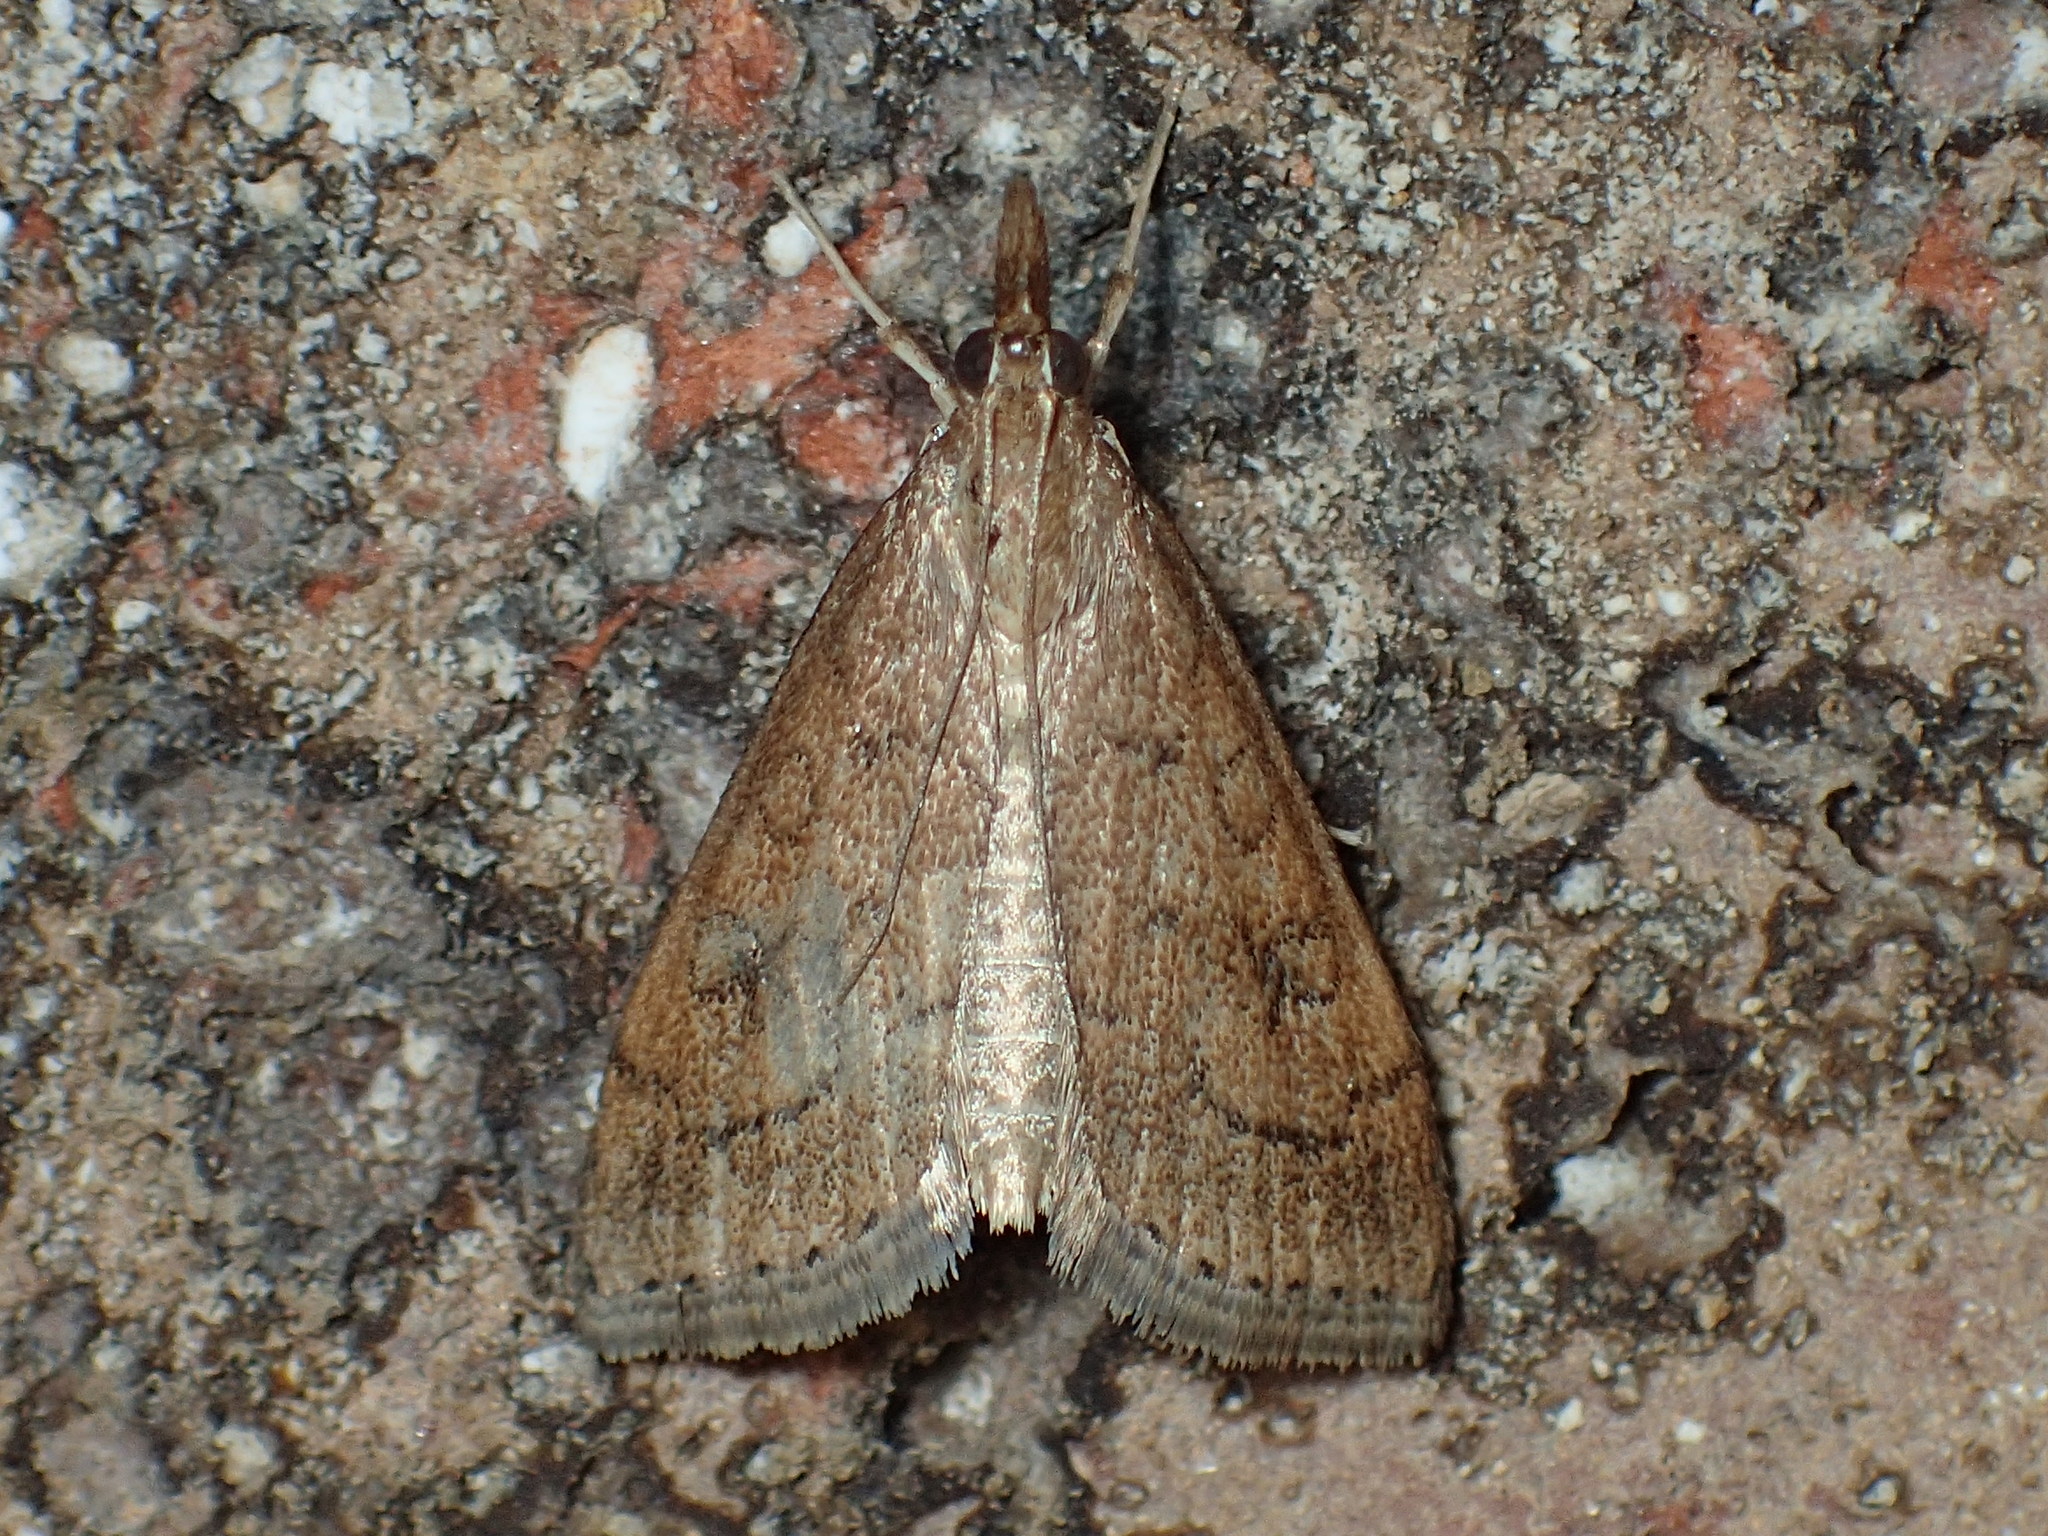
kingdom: Animalia
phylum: Arthropoda
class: Insecta
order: Lepidoptera
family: Crambidae
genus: Udea
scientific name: Udea rubigalis
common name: Celery leaftier moth
